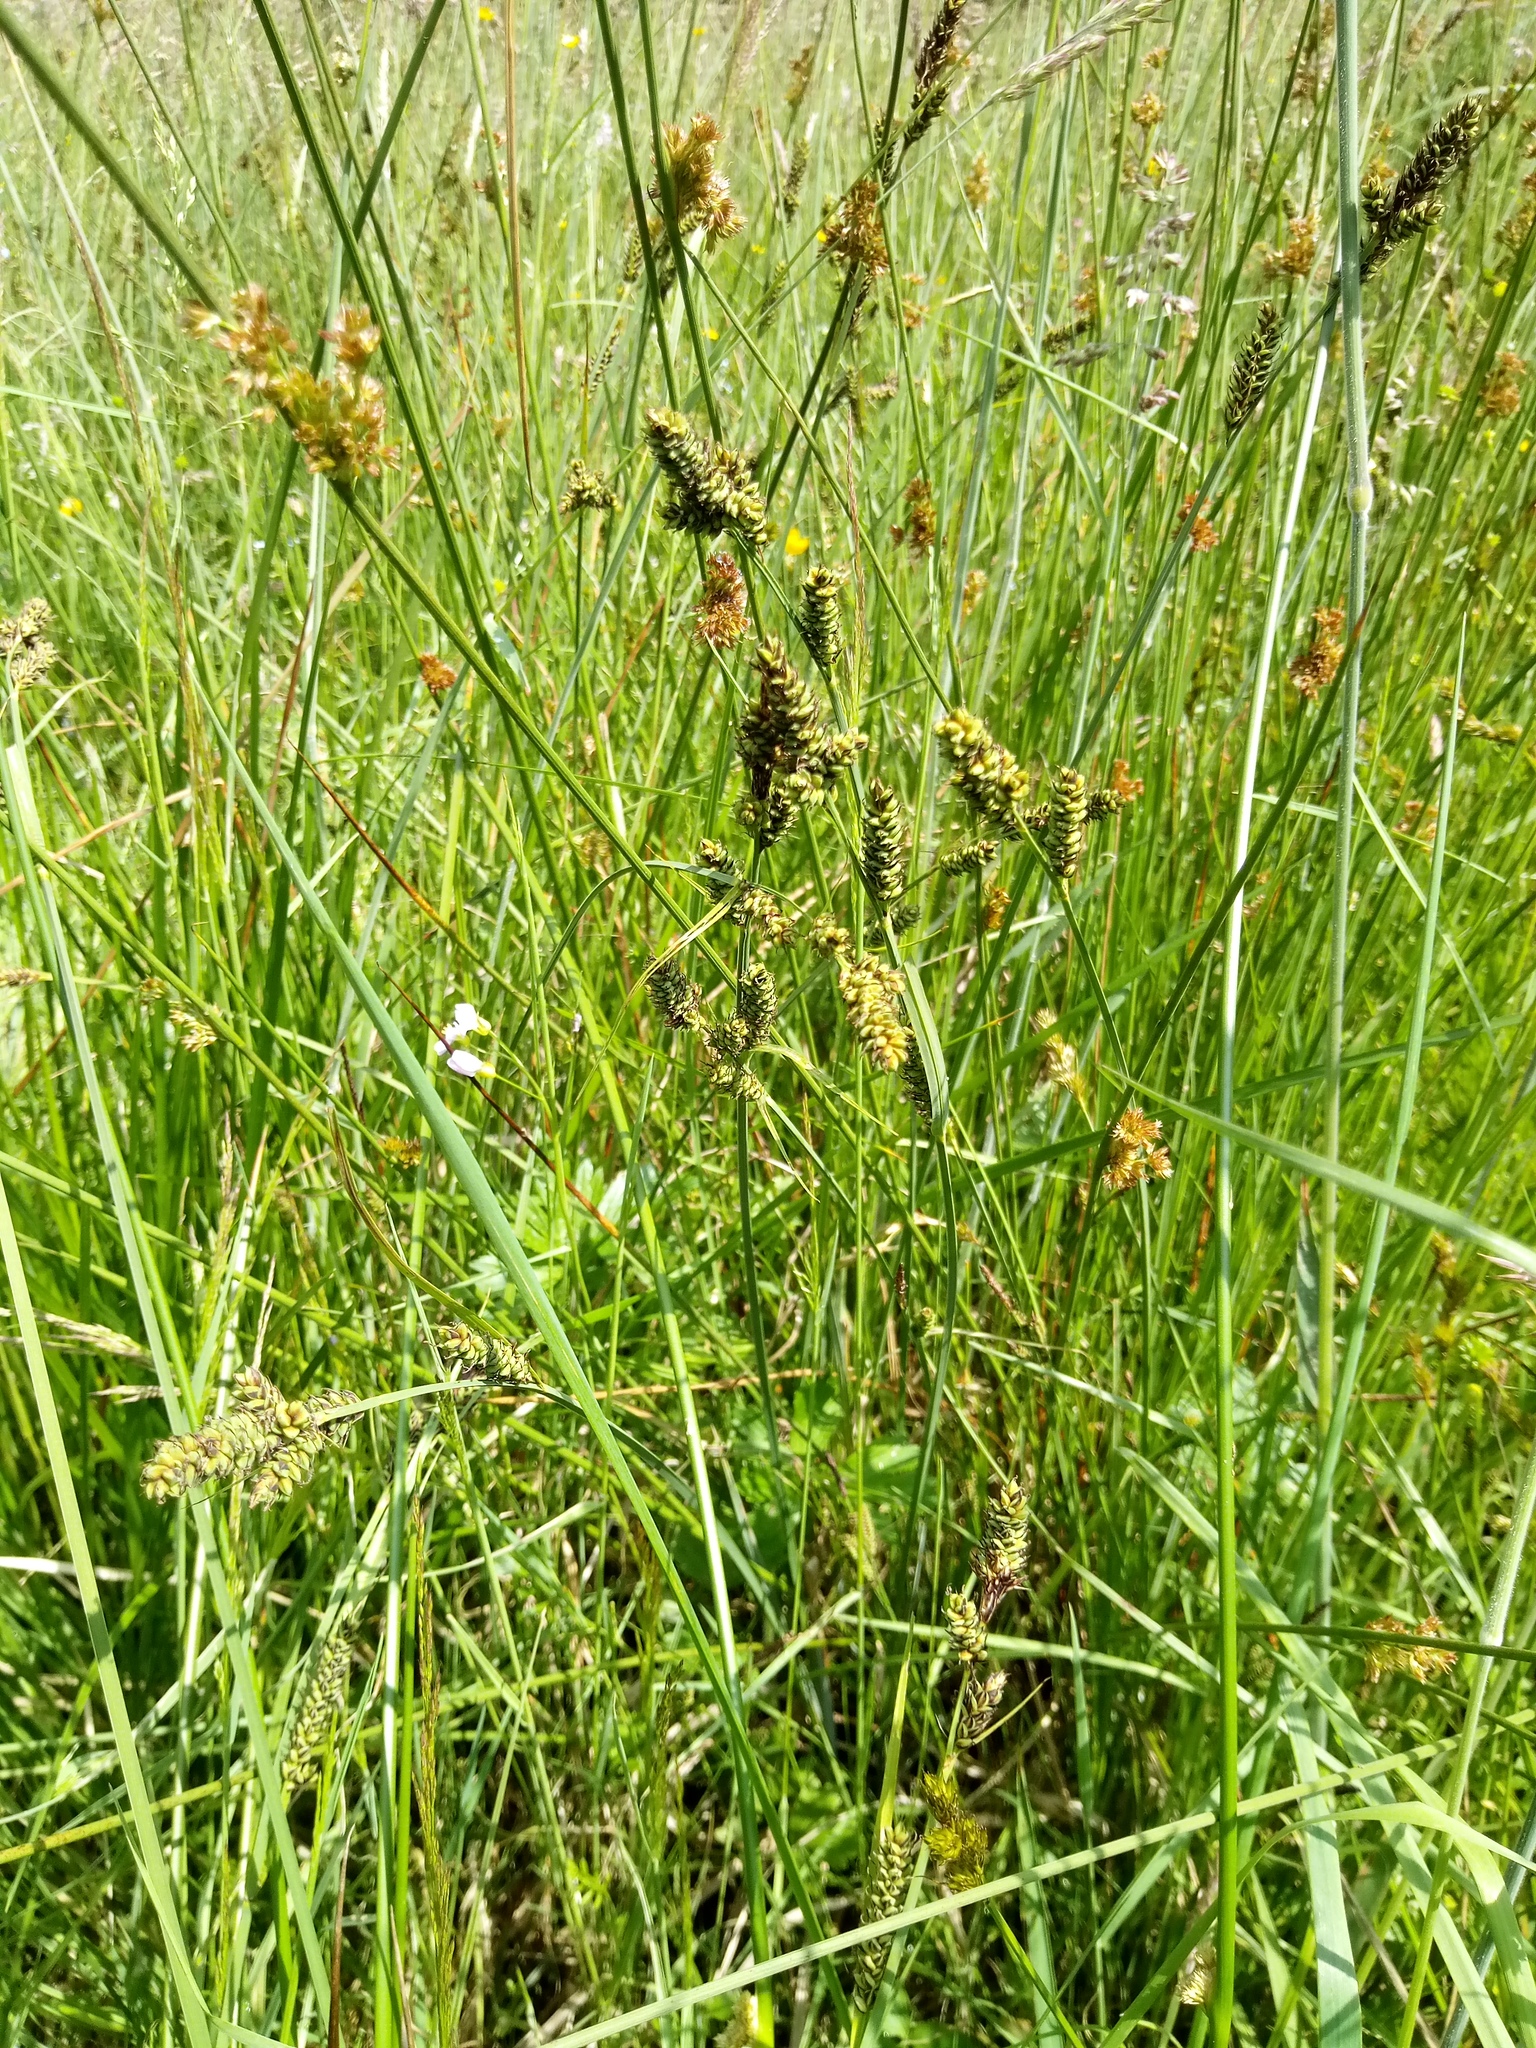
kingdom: Plantae
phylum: Tracheophyta
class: Liliopsida
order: Poales
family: Cyperaceae
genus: Carex
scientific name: Carex hartmaniorum
